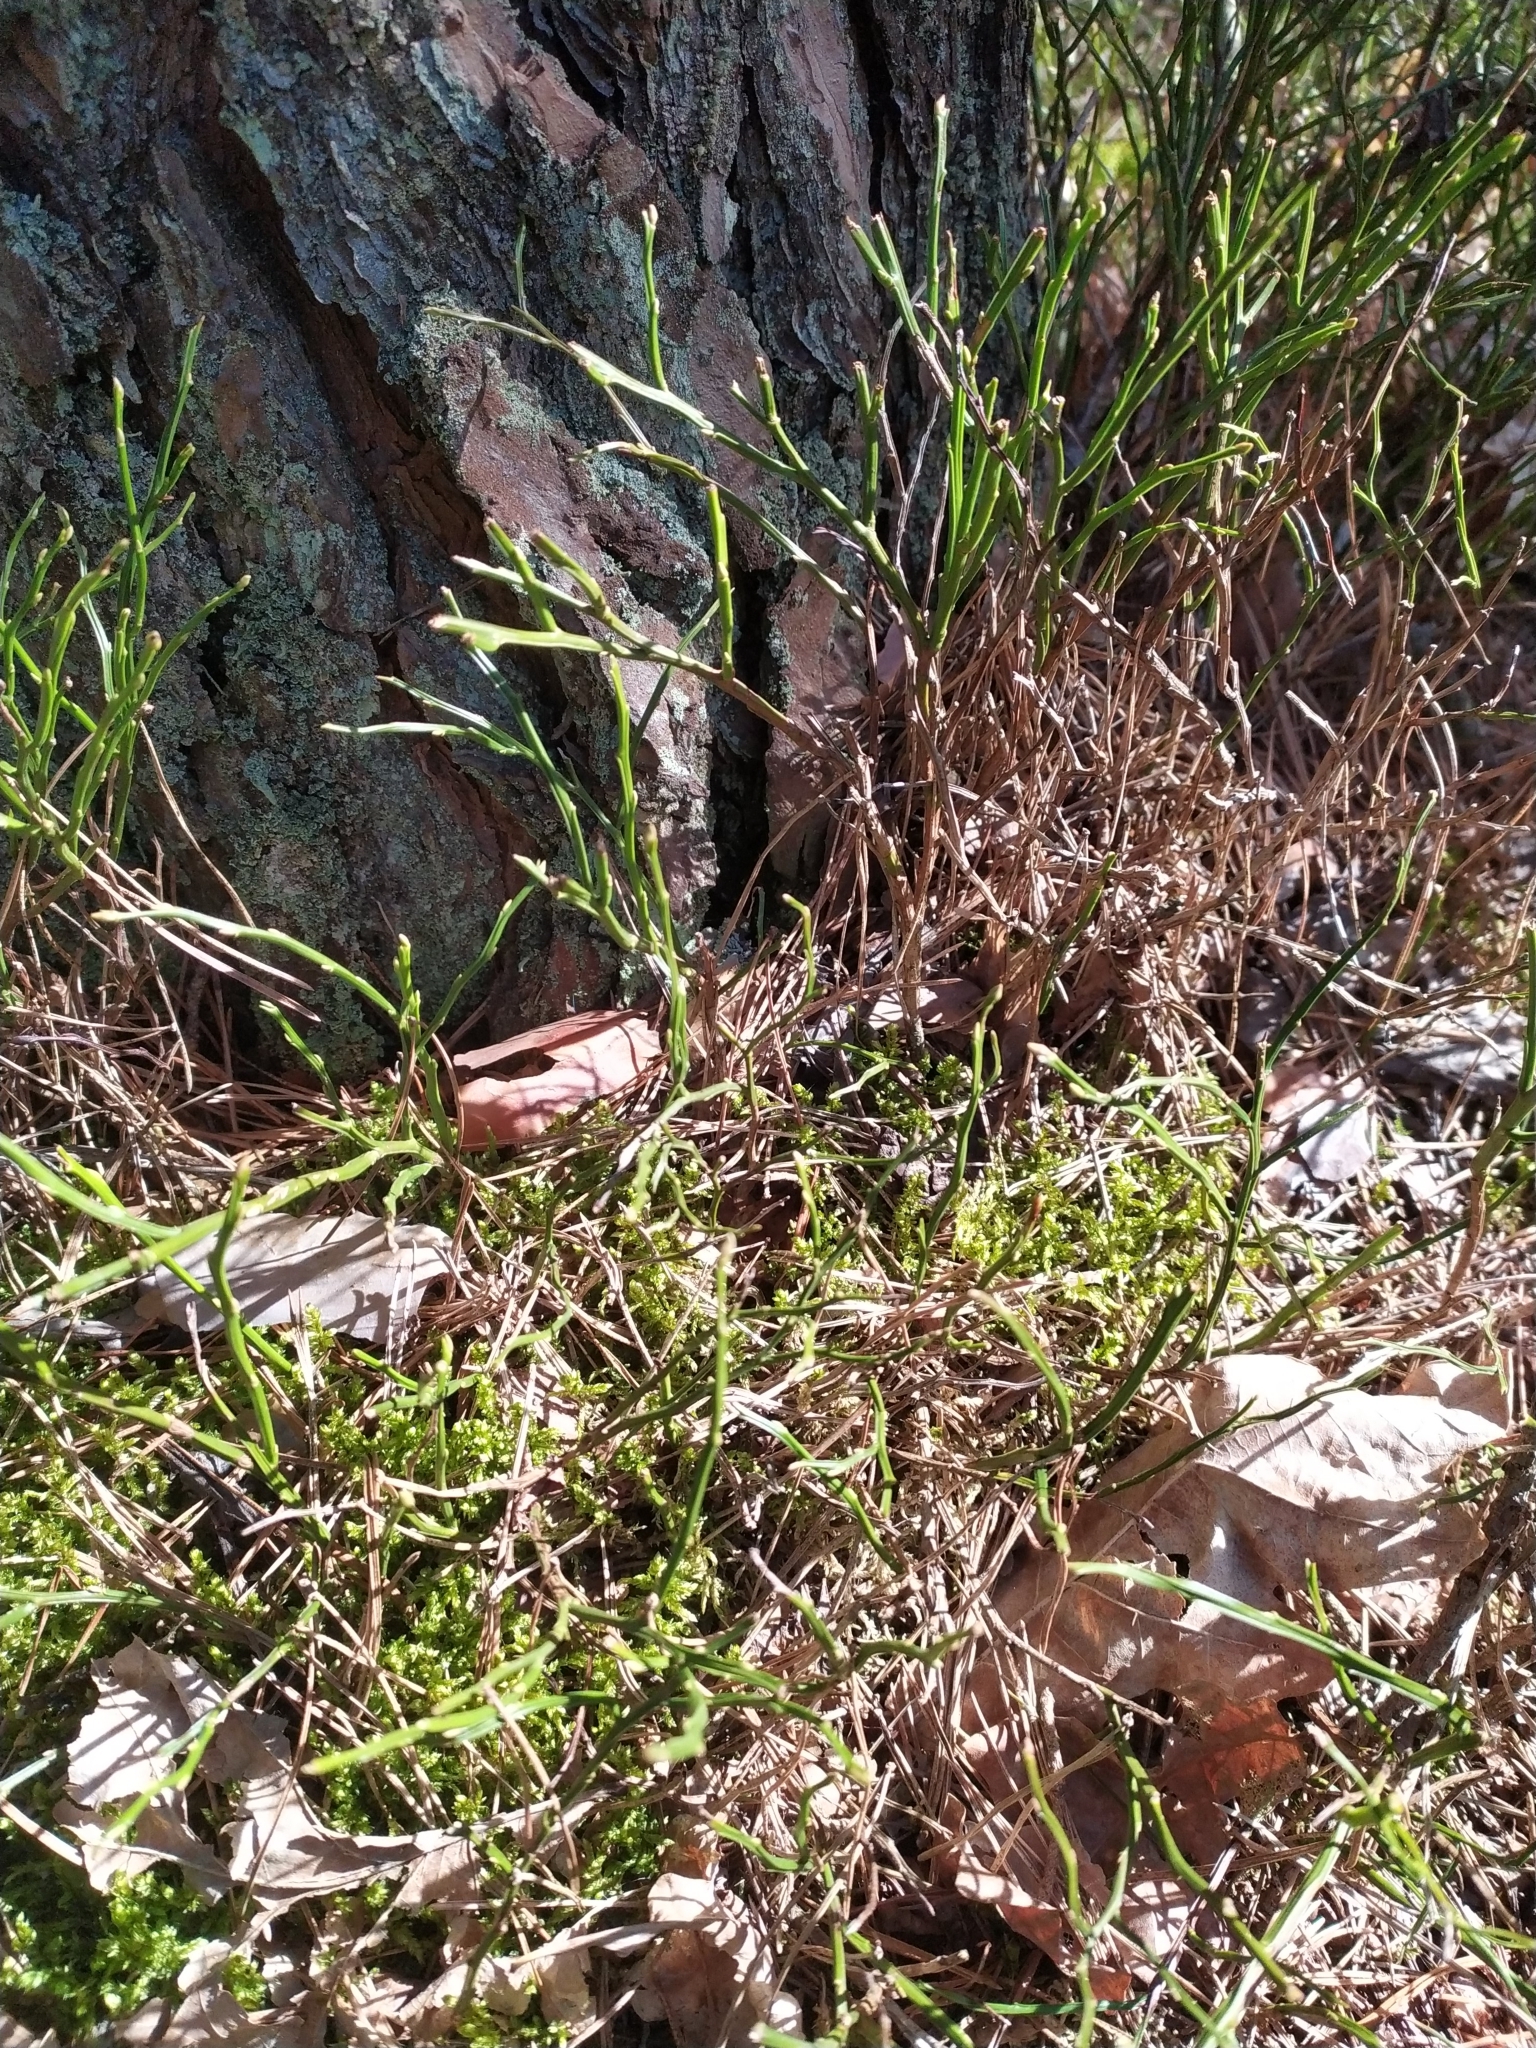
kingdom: Plantae
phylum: Tracheophyta
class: Magnoliopsida
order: Ericales
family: Ericaceae
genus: Vaccinium
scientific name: Vaccinium myrtillus
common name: Bilberry
